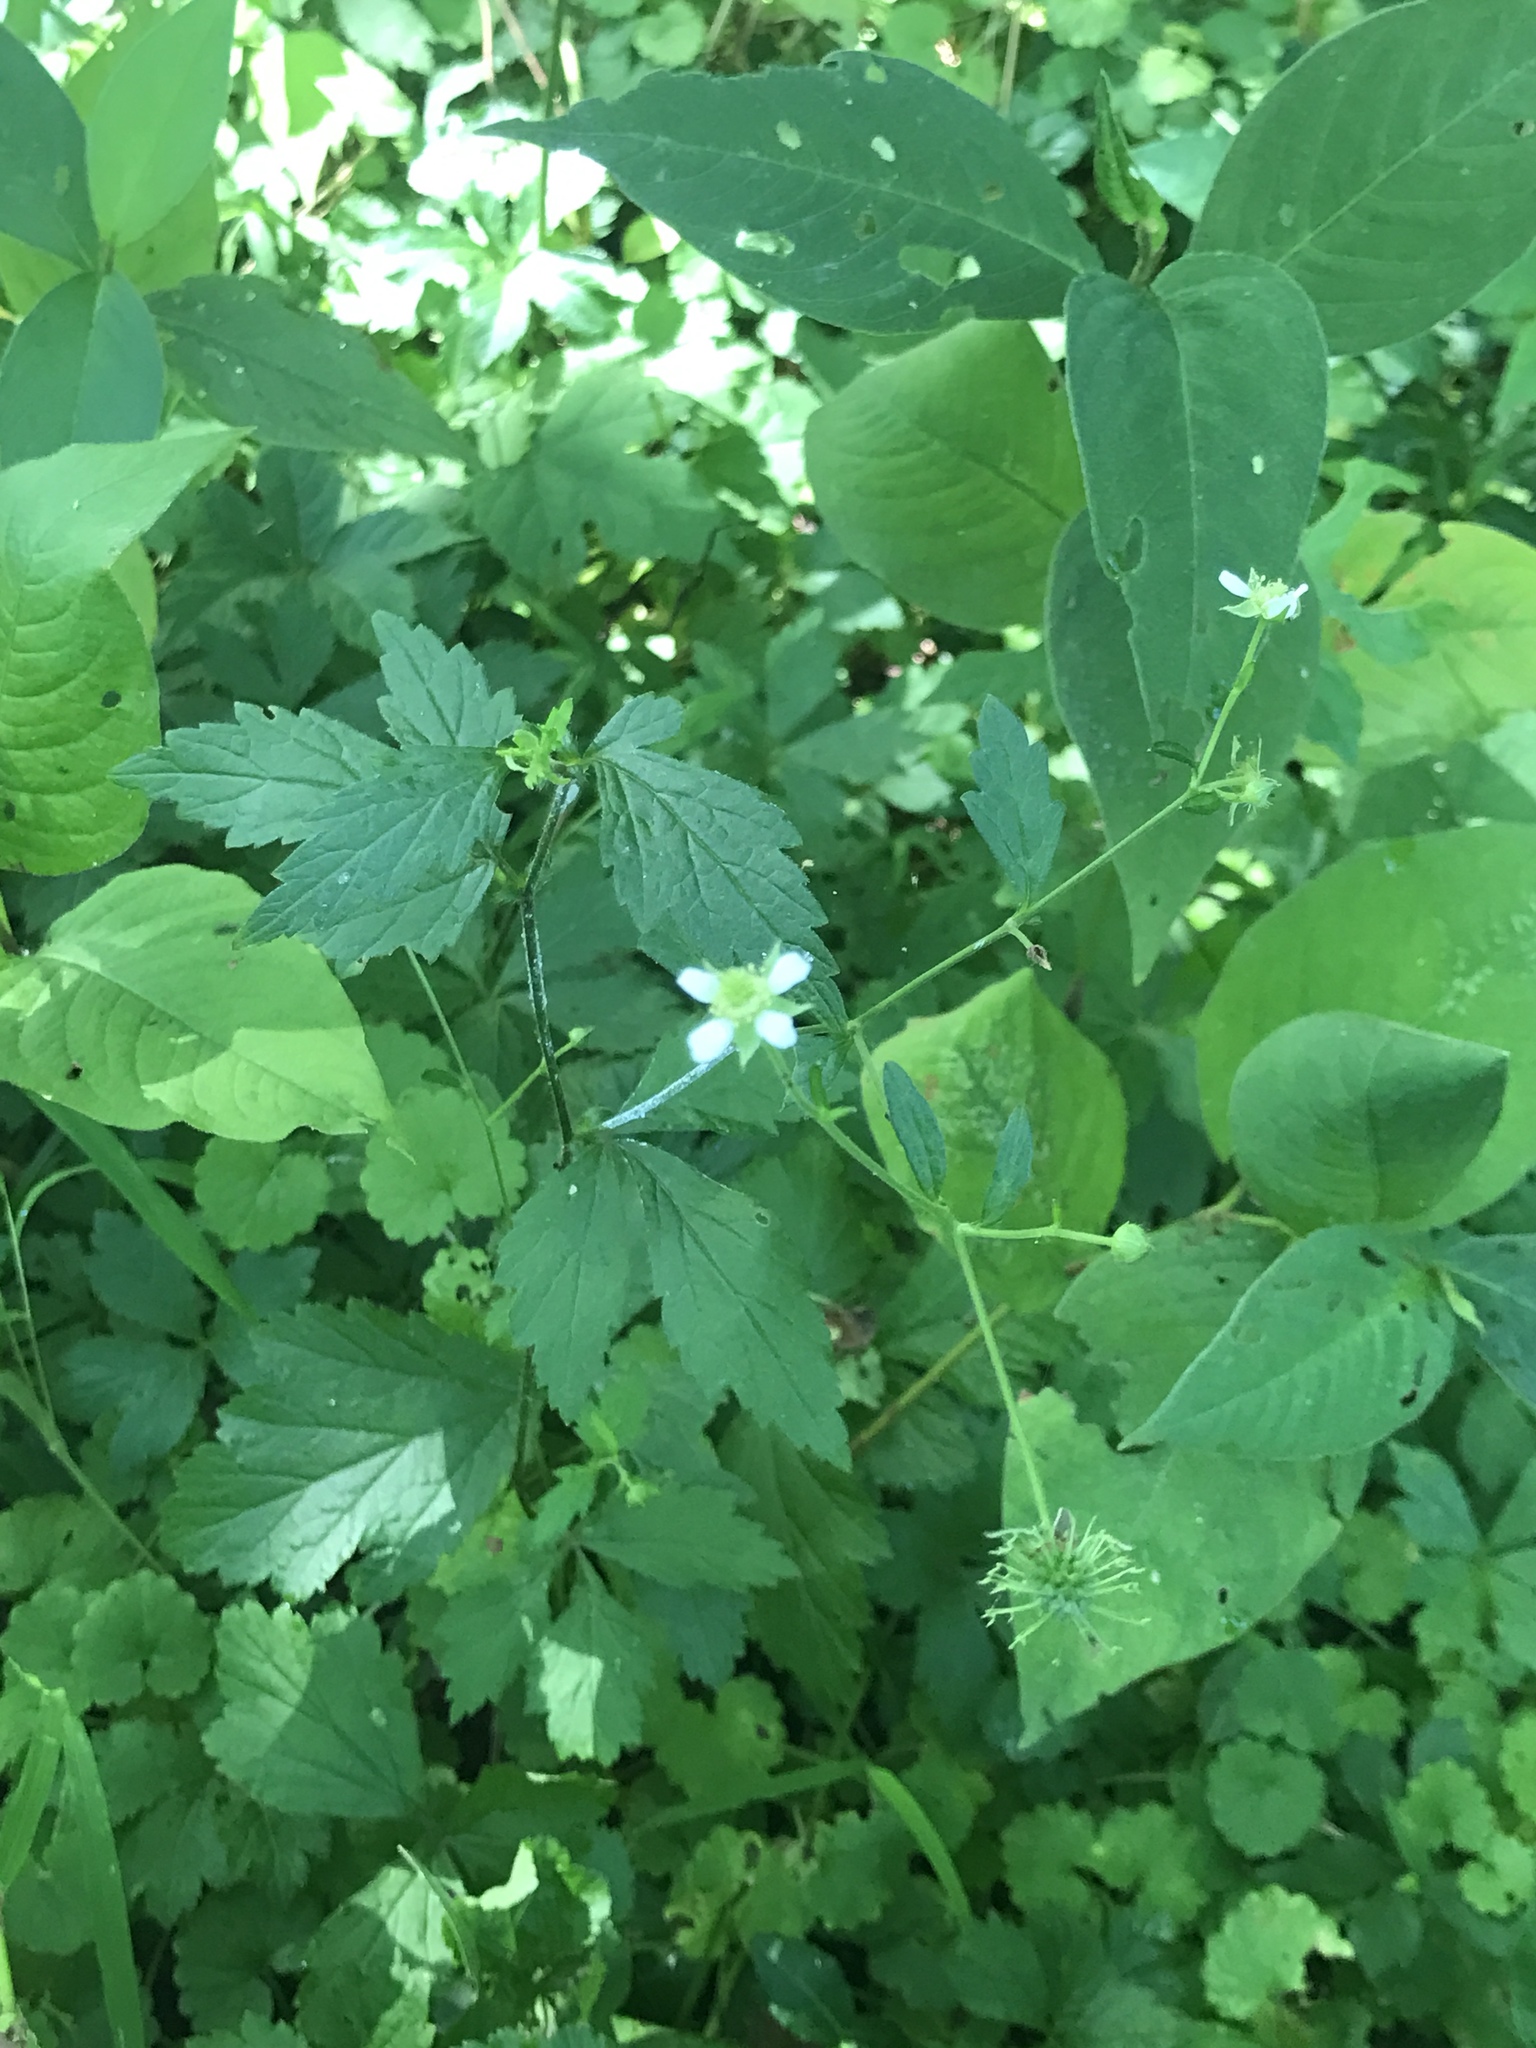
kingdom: Plantae
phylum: Tracheophyta
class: Magnoliopsida
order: Rosales
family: Rosaceae
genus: Geum
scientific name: Geum canadense
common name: White avens
